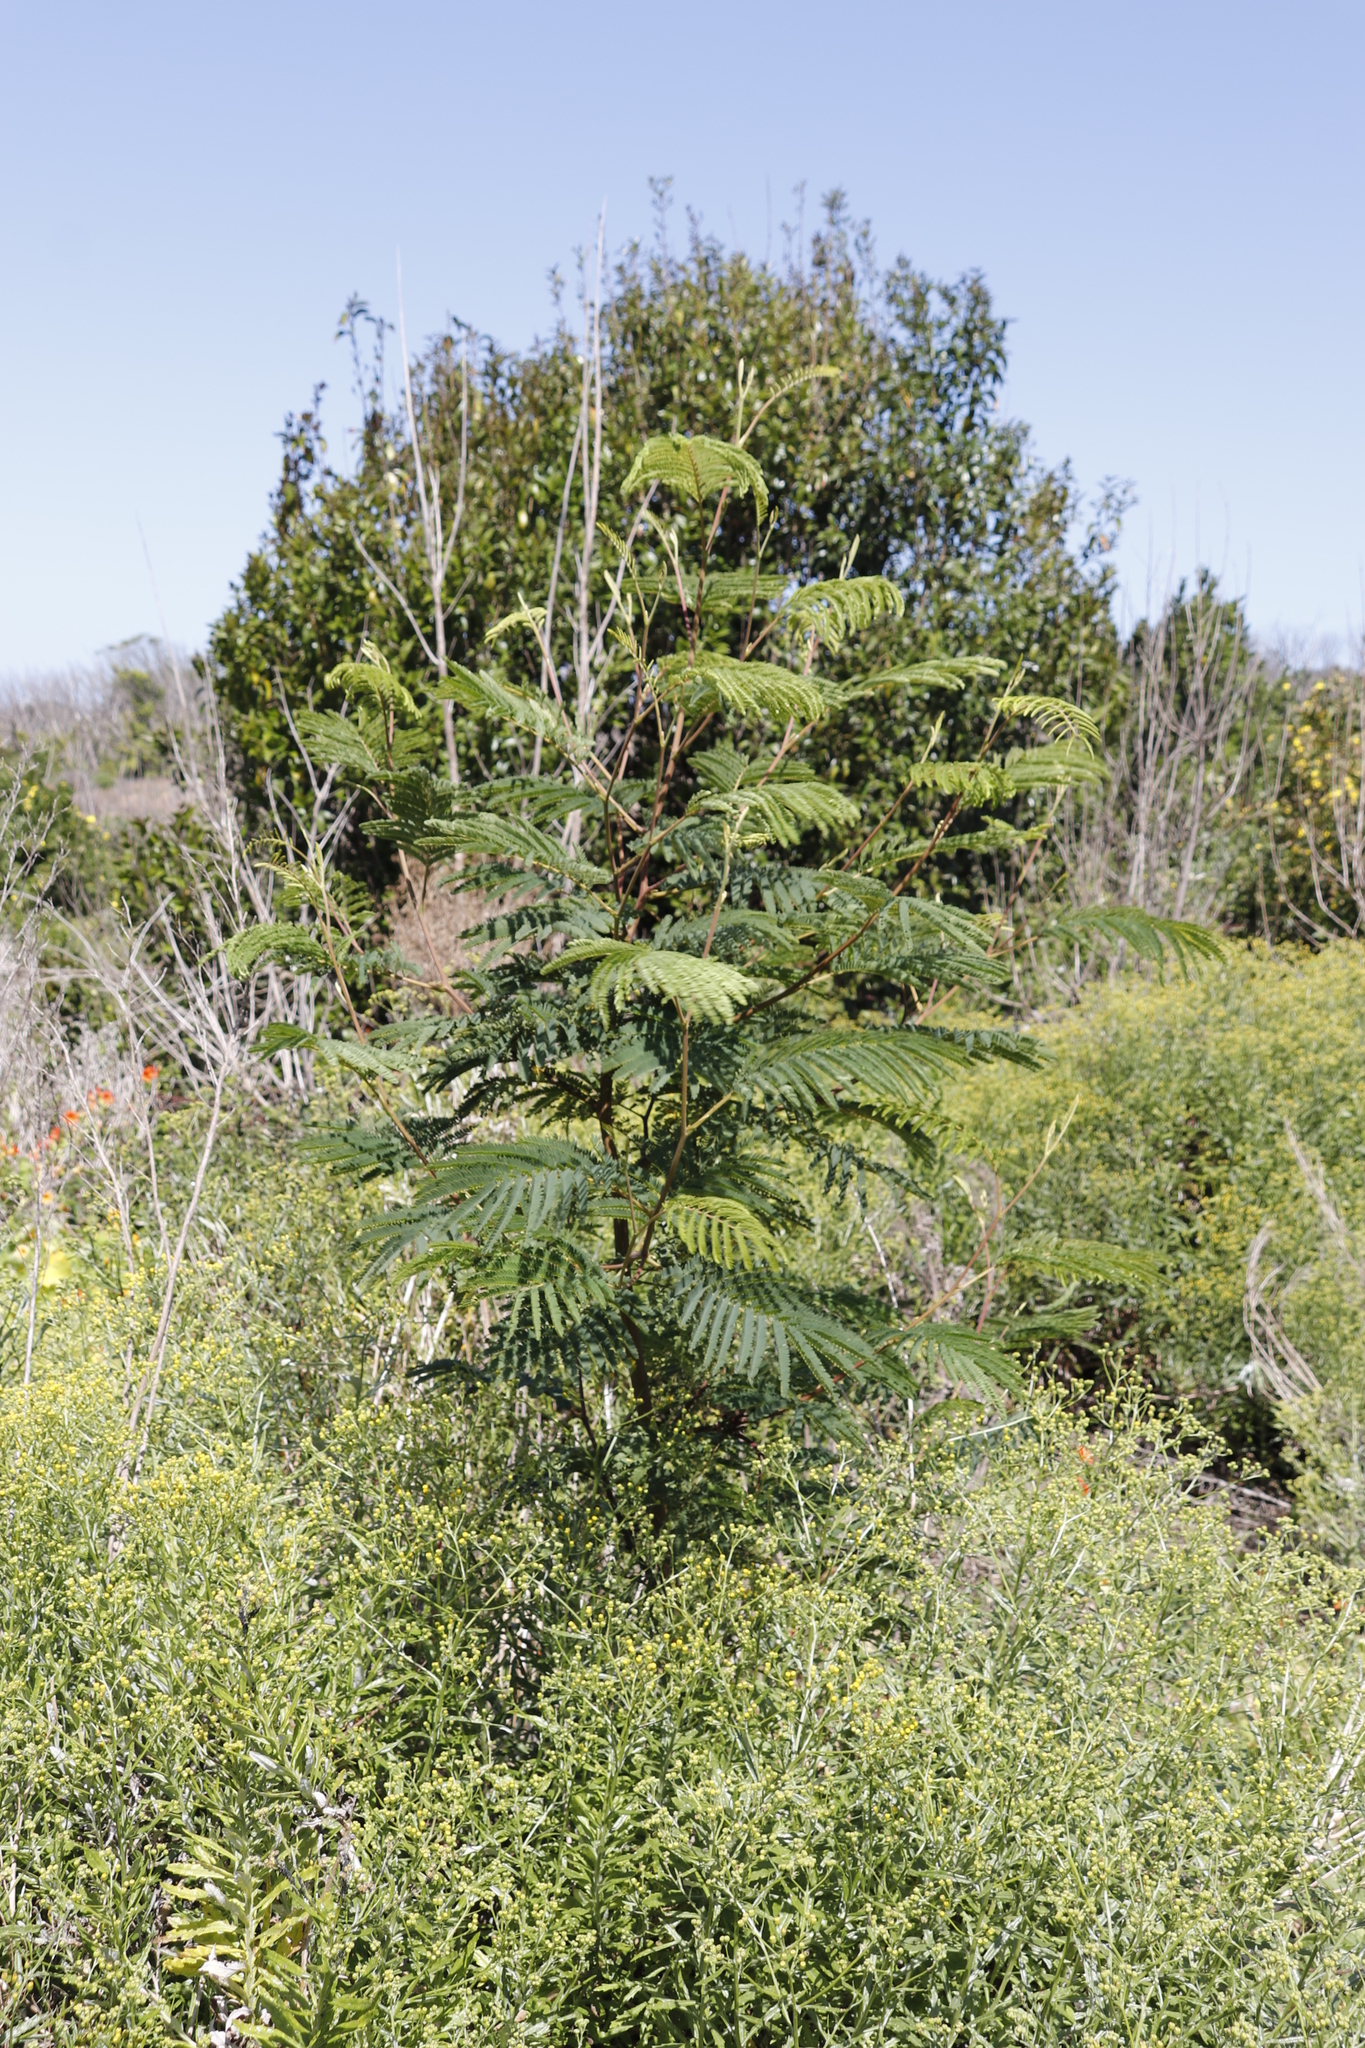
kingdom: Plantae
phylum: Tracheophyta
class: Magnoliopsida
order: Fabales
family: Fabaceae
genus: Paraserianthes
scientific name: Paraserianthes lophantha
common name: Plume albizia
